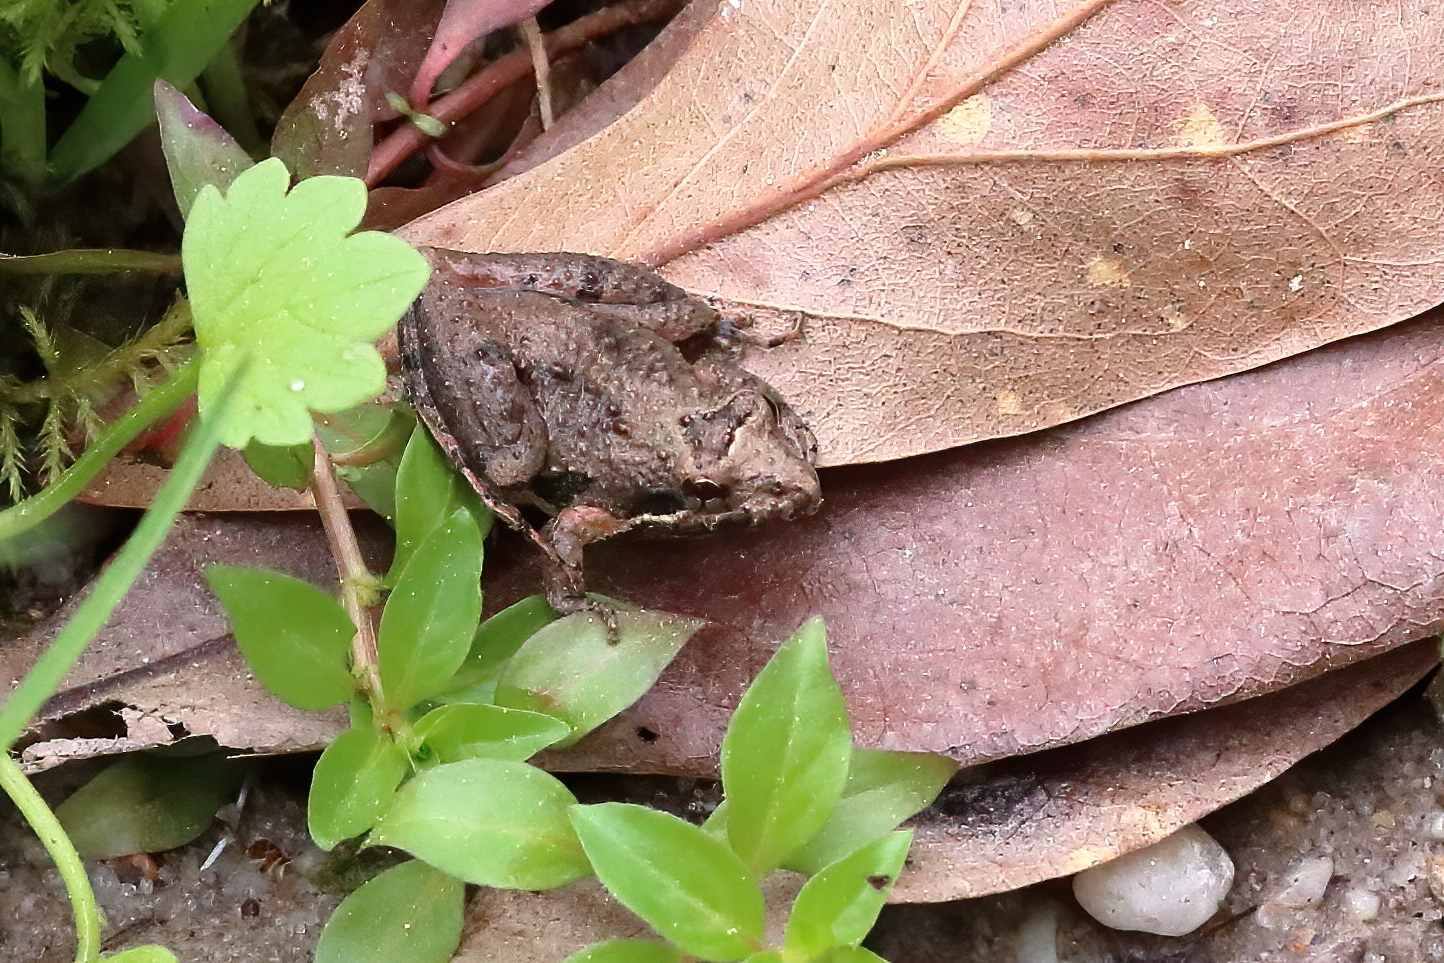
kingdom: Animalia
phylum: Chordata
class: Amphibia
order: Anura
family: Hylidae
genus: Acris
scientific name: Acris gryllus
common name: Southern cricket frog
